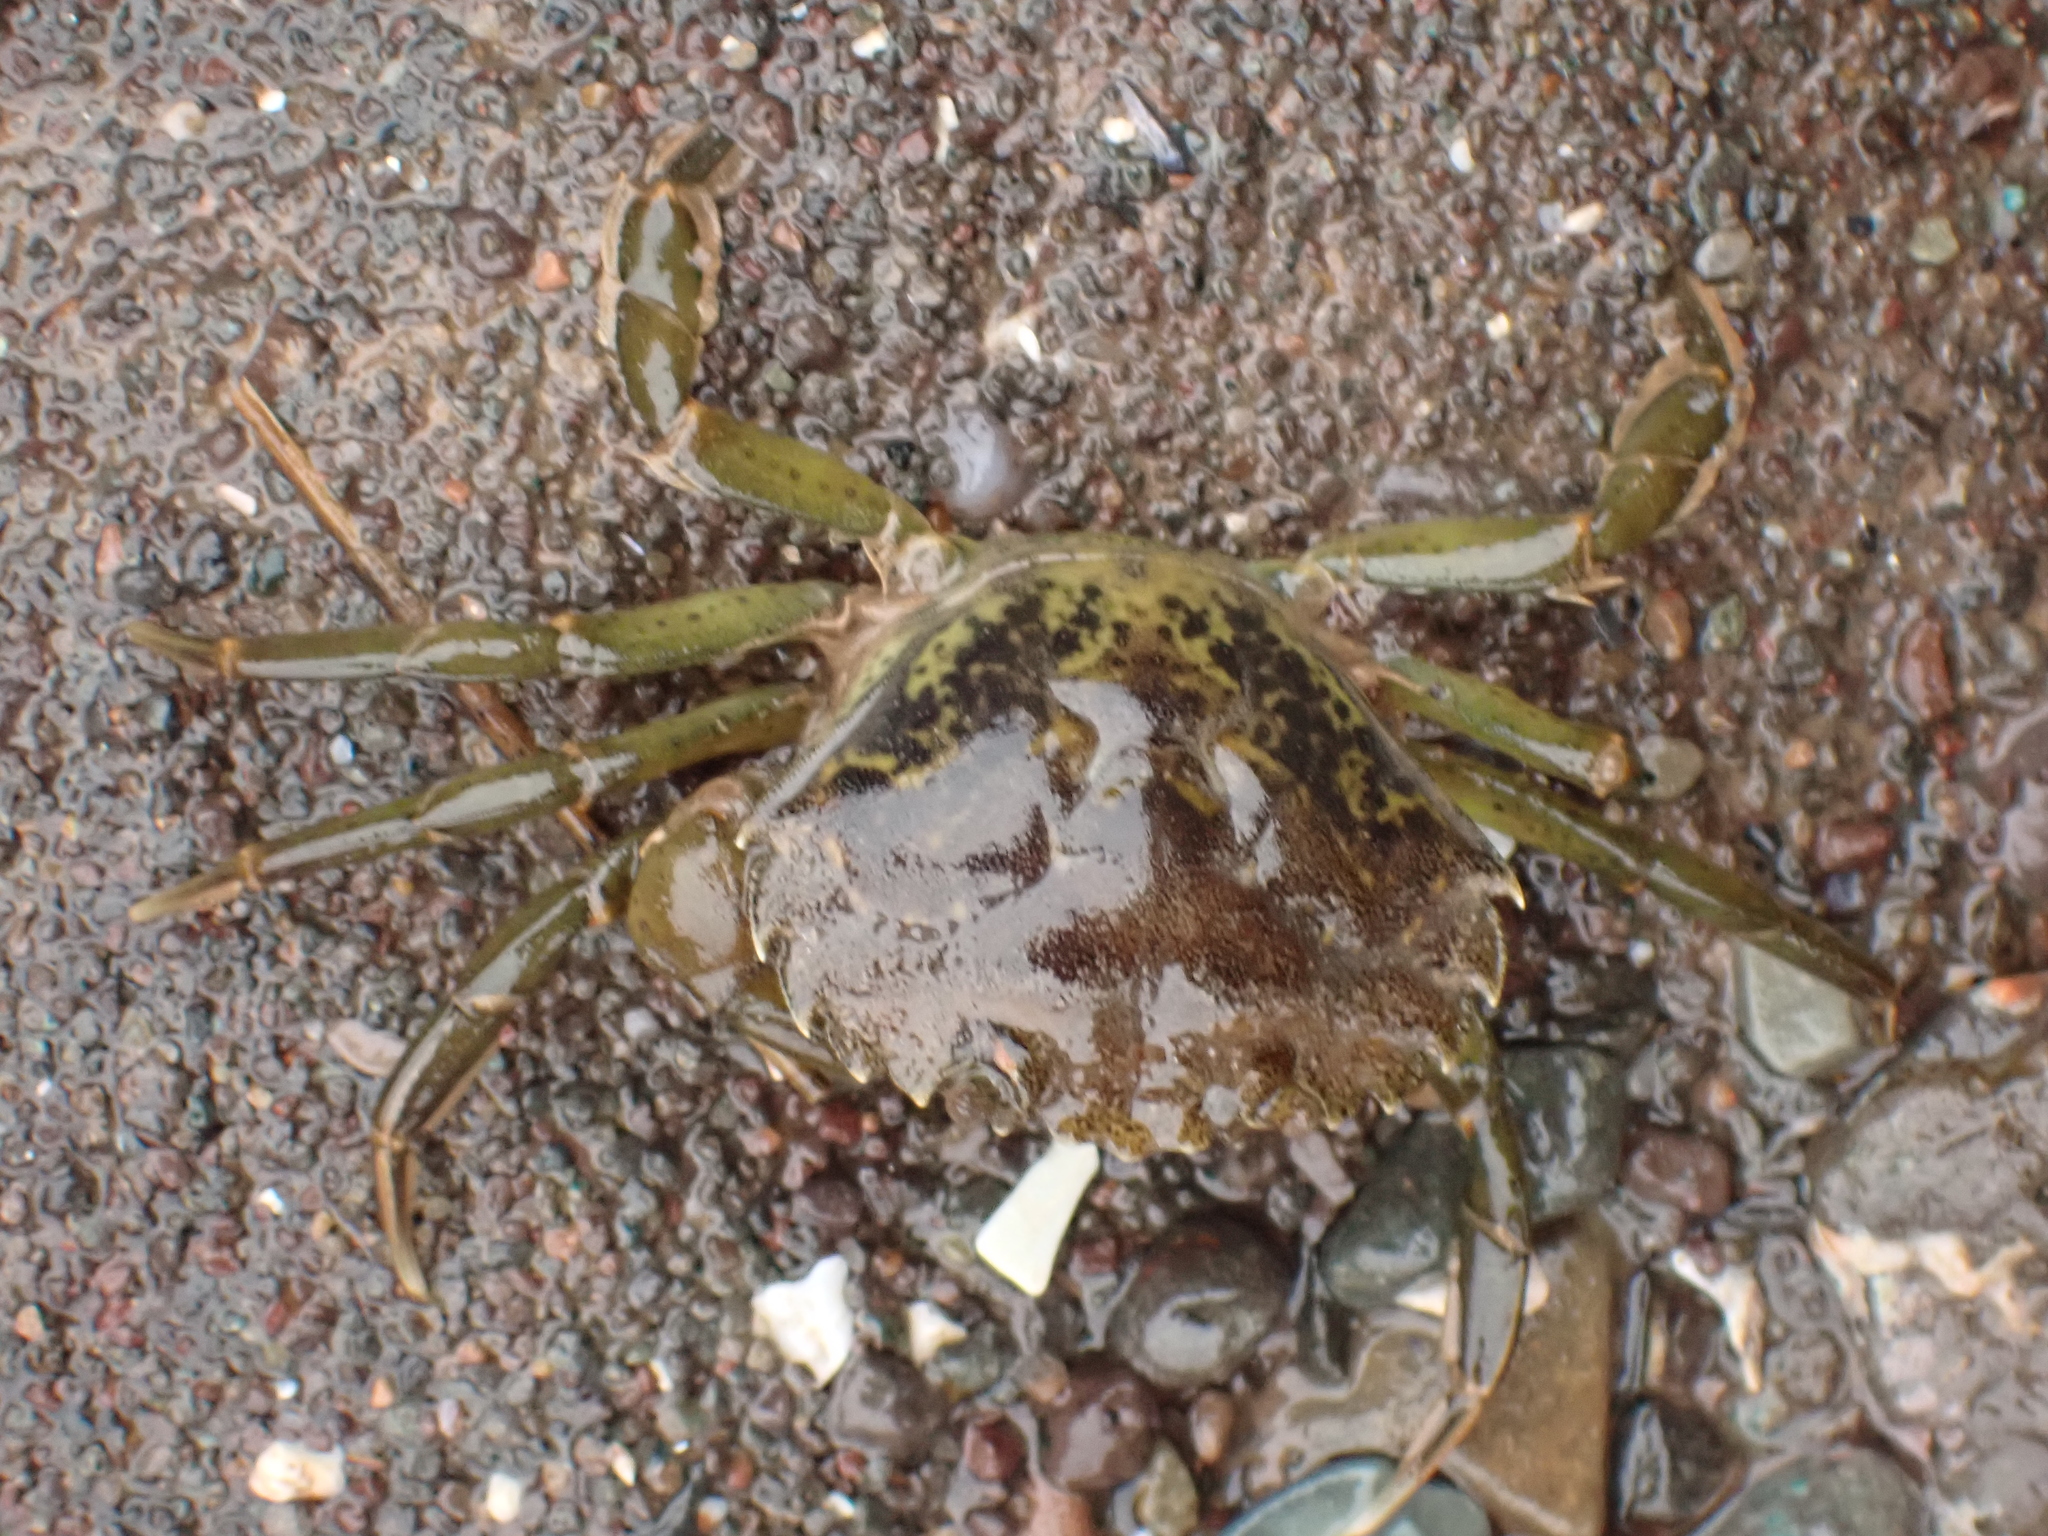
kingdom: Animalia
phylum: Arthropoda
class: Malacostraca
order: Decapoda
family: Carcinidae
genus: Carcinus
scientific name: Carcinus maenas
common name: European green crab
